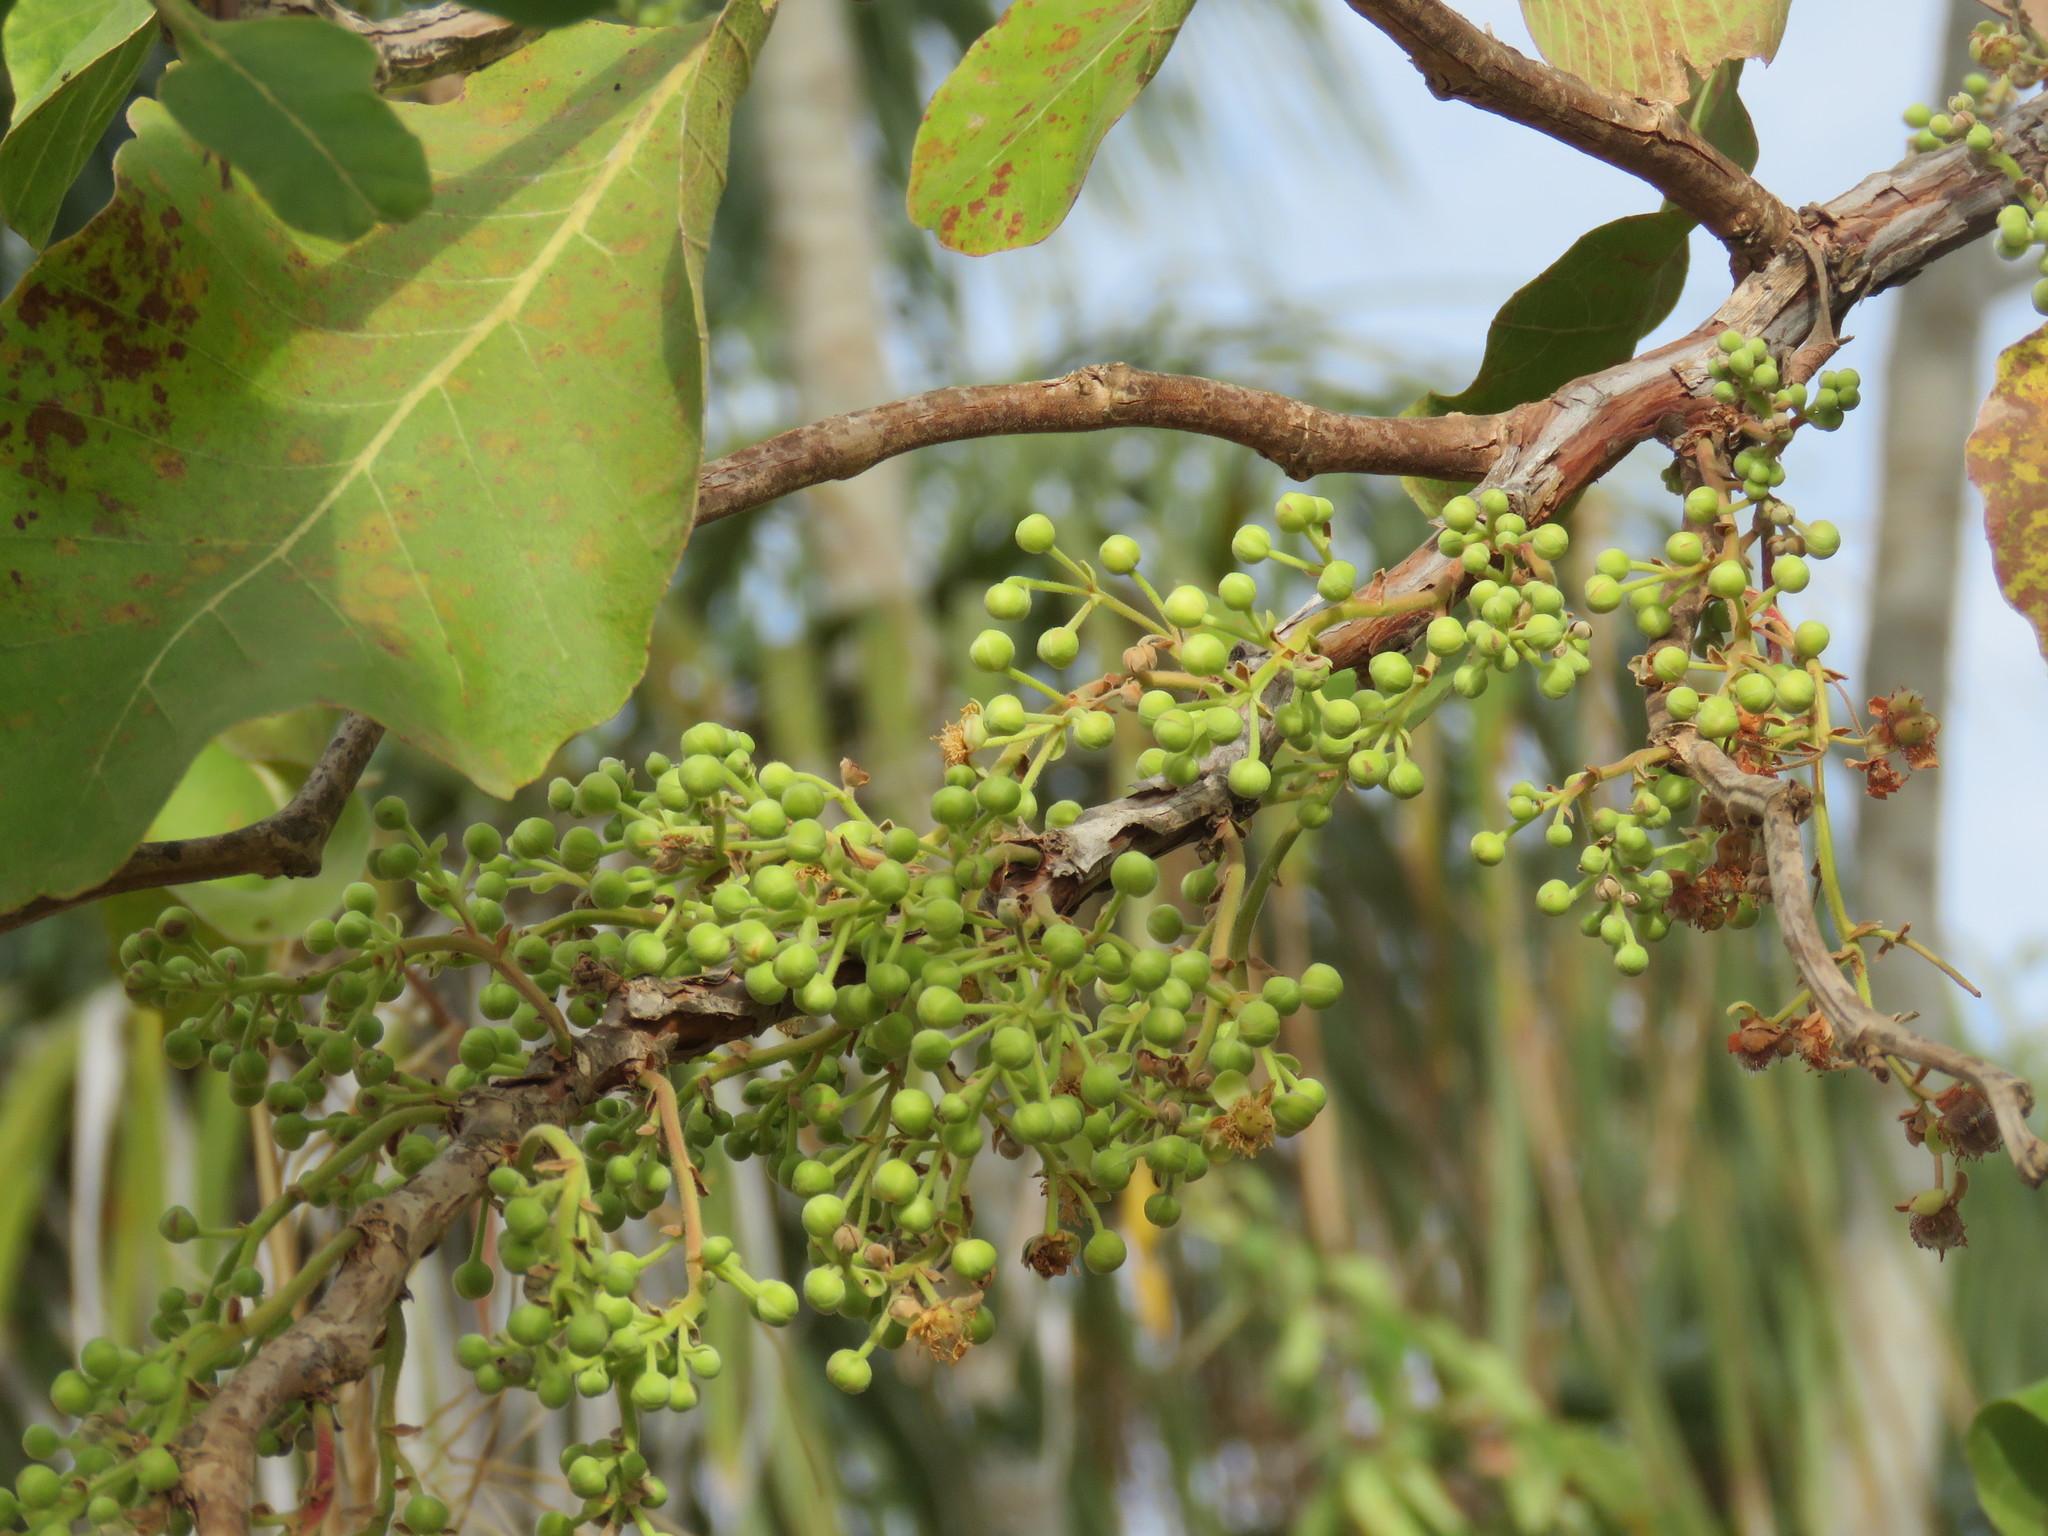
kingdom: Plantae
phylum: Tracheophyta
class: Magnoliopsida
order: Dilleniales
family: Dilleniaceae
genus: Curatella
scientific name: Curatella americana
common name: Sandpaper tree
